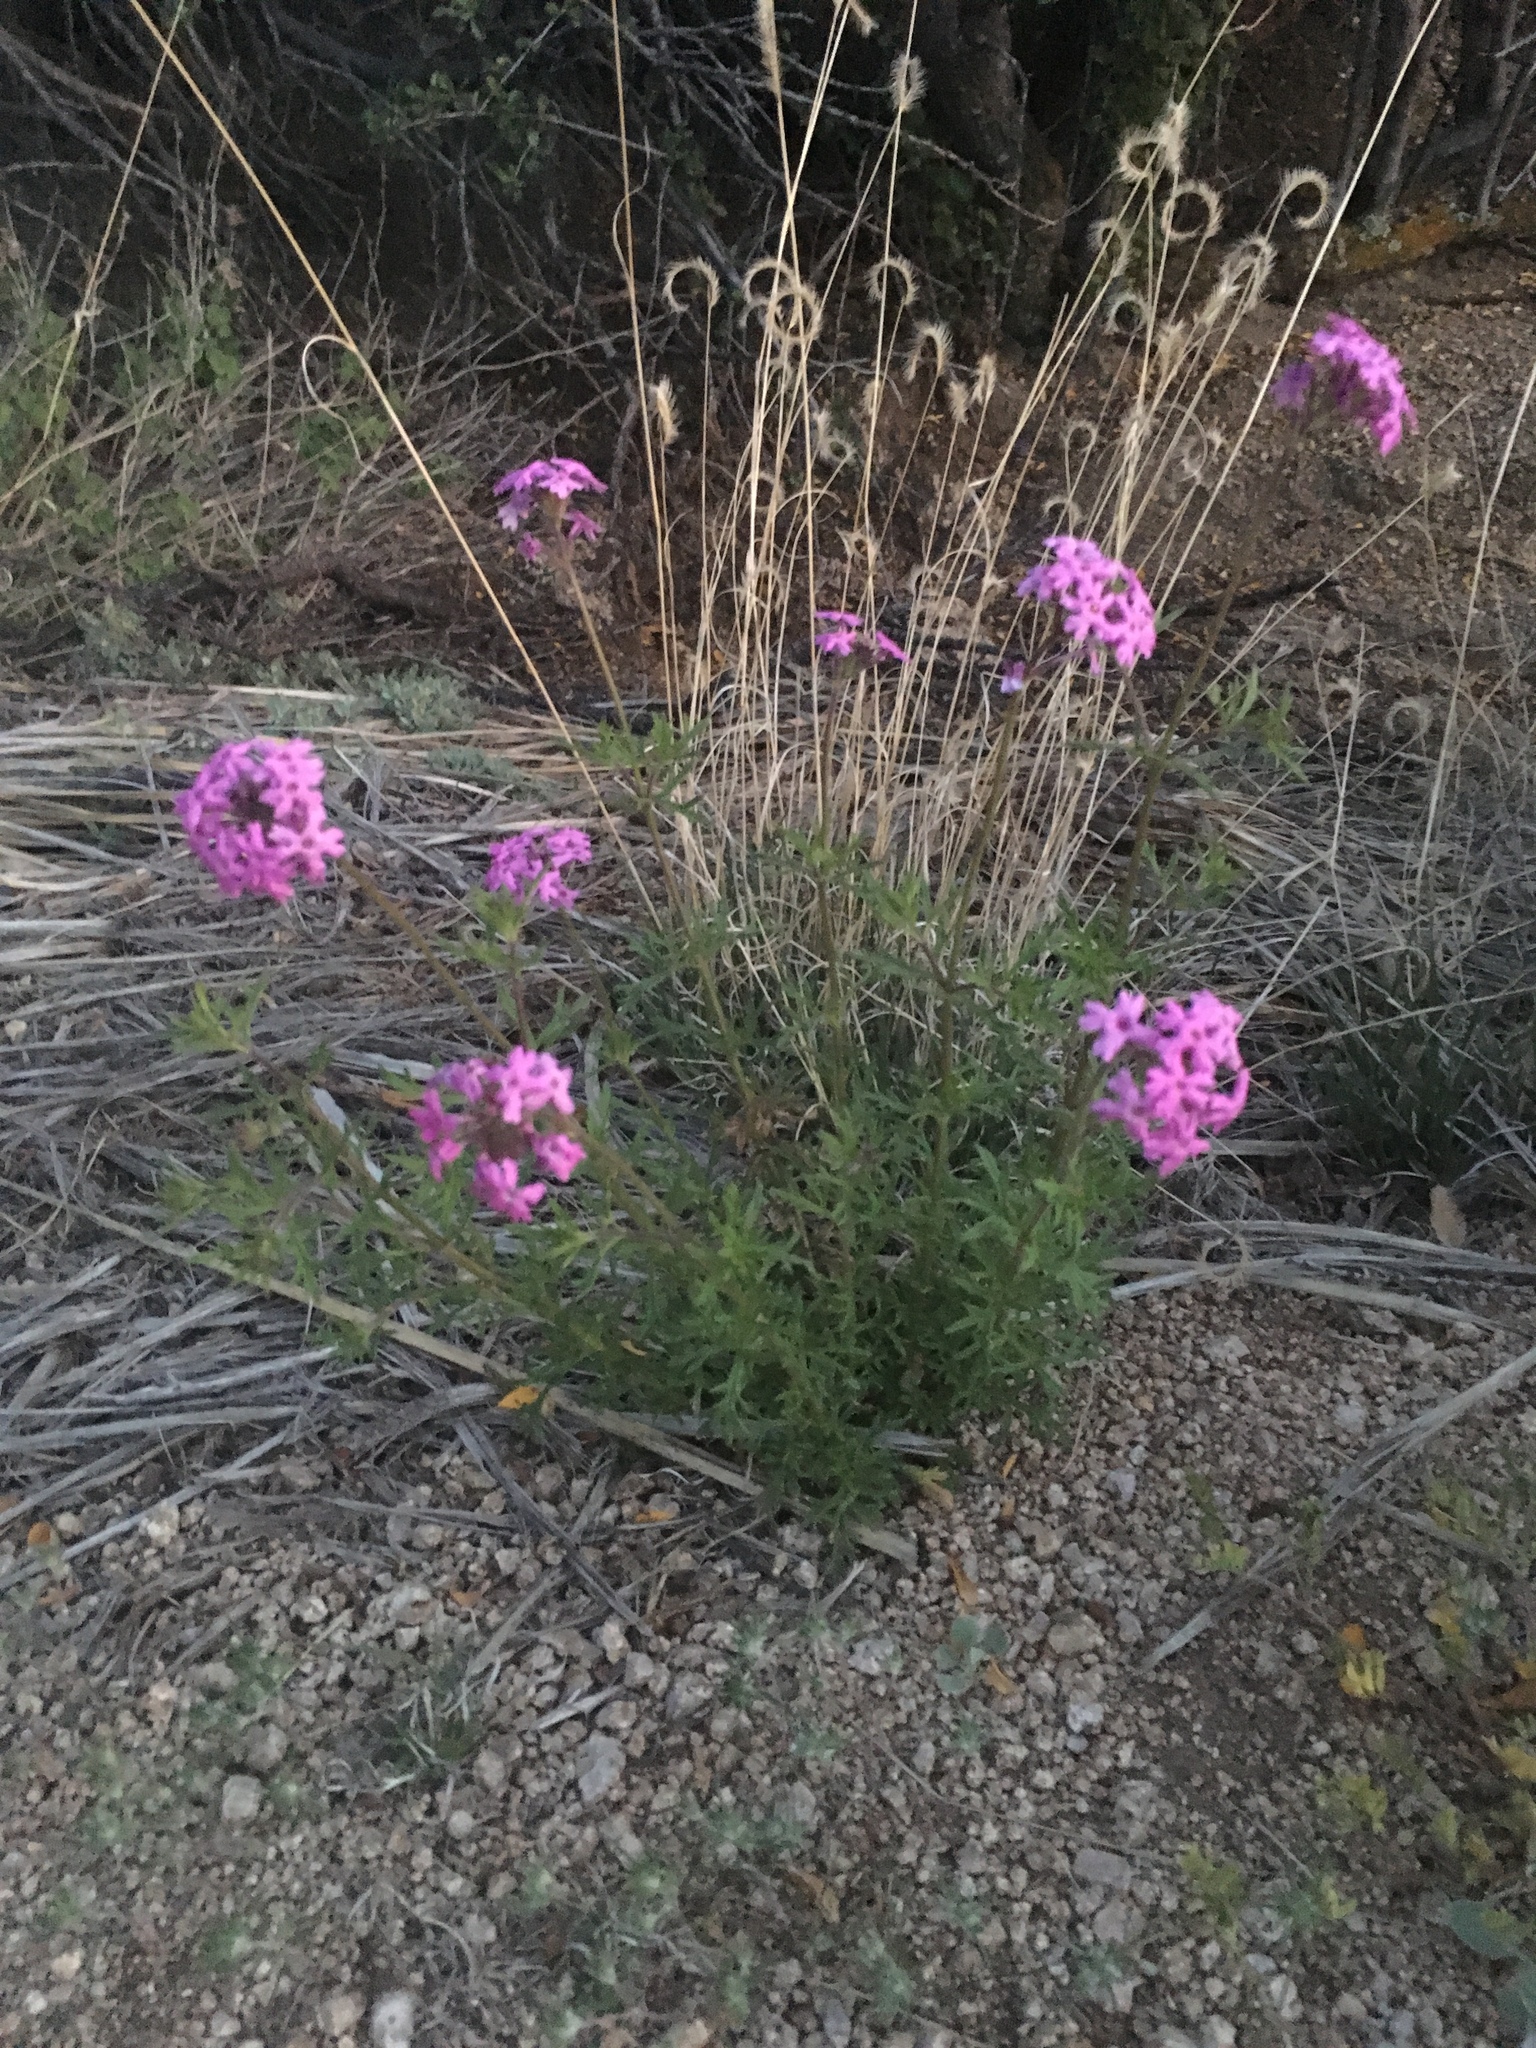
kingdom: Plantae
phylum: Tracheophyta
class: Magnoliopsida
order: Lamiales
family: Verbenaceae
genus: Verbena
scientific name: Verbena bipinnatifida
